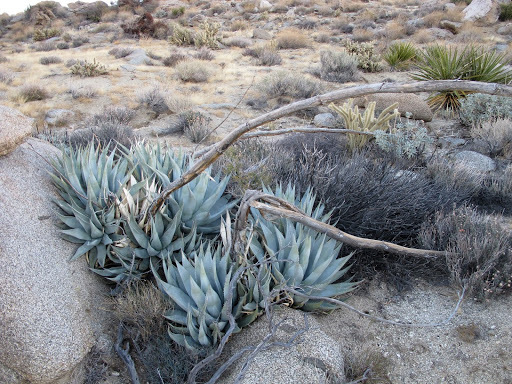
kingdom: Plantae
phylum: Tracheophyta
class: Liliopsida
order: Asparagales
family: Asparagaceae
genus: Agave
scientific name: Agave deserti
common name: Desert agave
